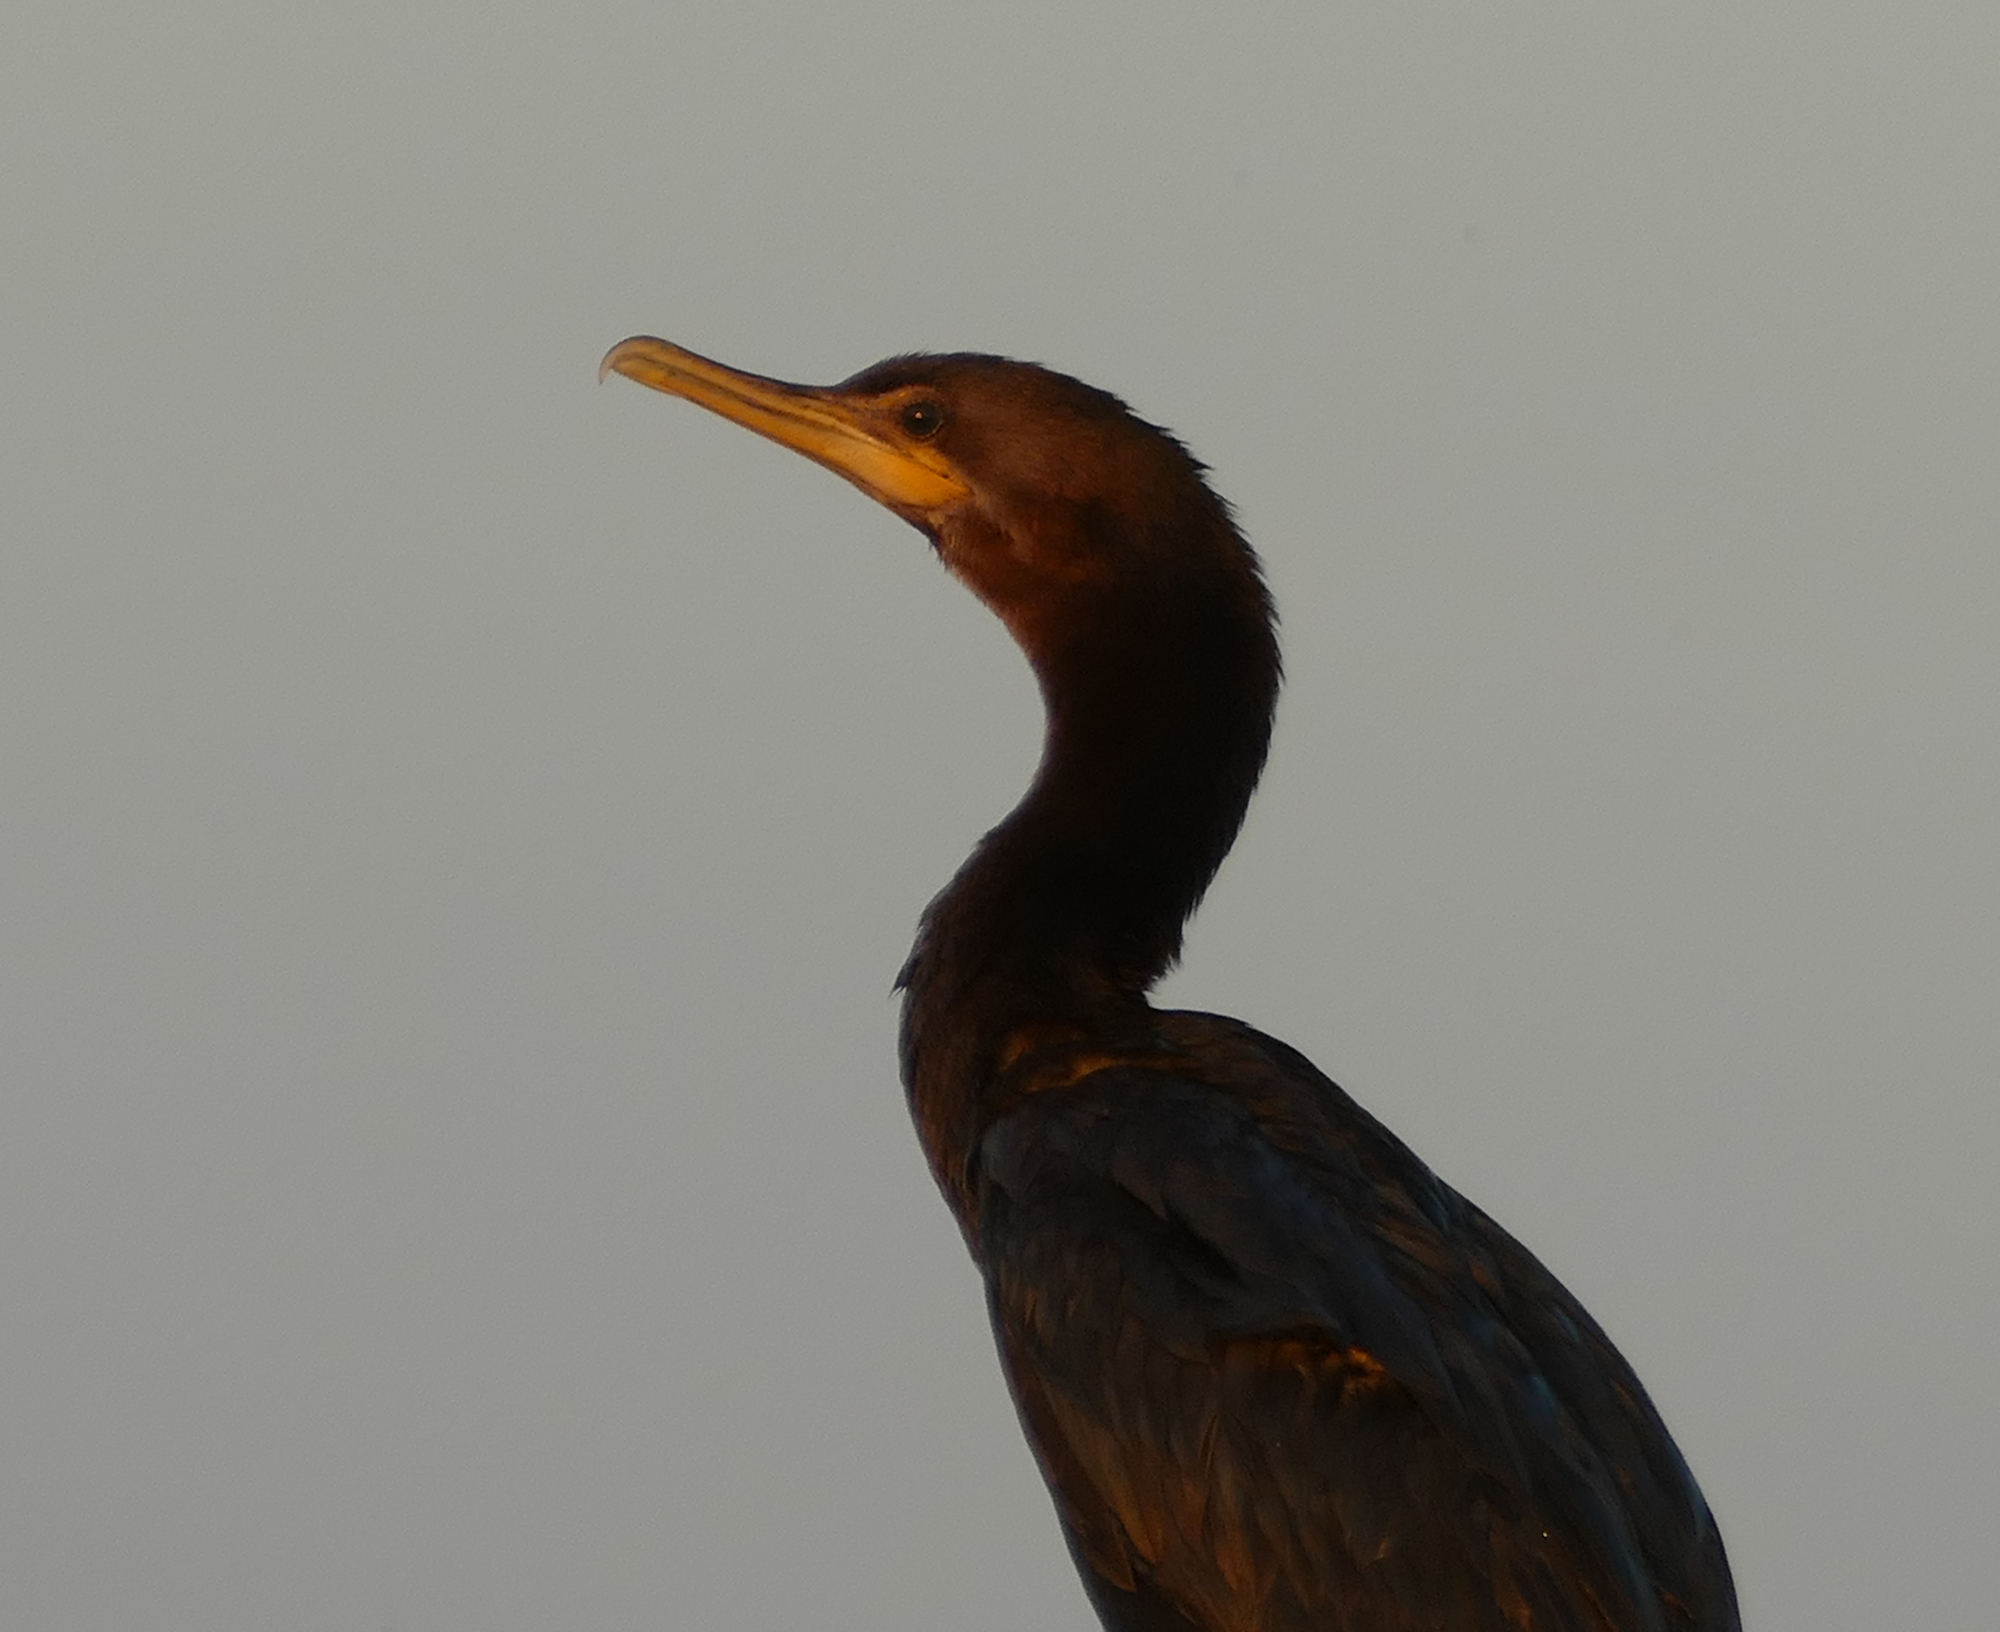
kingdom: Animalia
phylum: Chordata
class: Aves
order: Suliformes
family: Phalacrocoracidae
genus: Phalacrocorax
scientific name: Phalacrocorax brasilianus
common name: Neotropic cormorant
